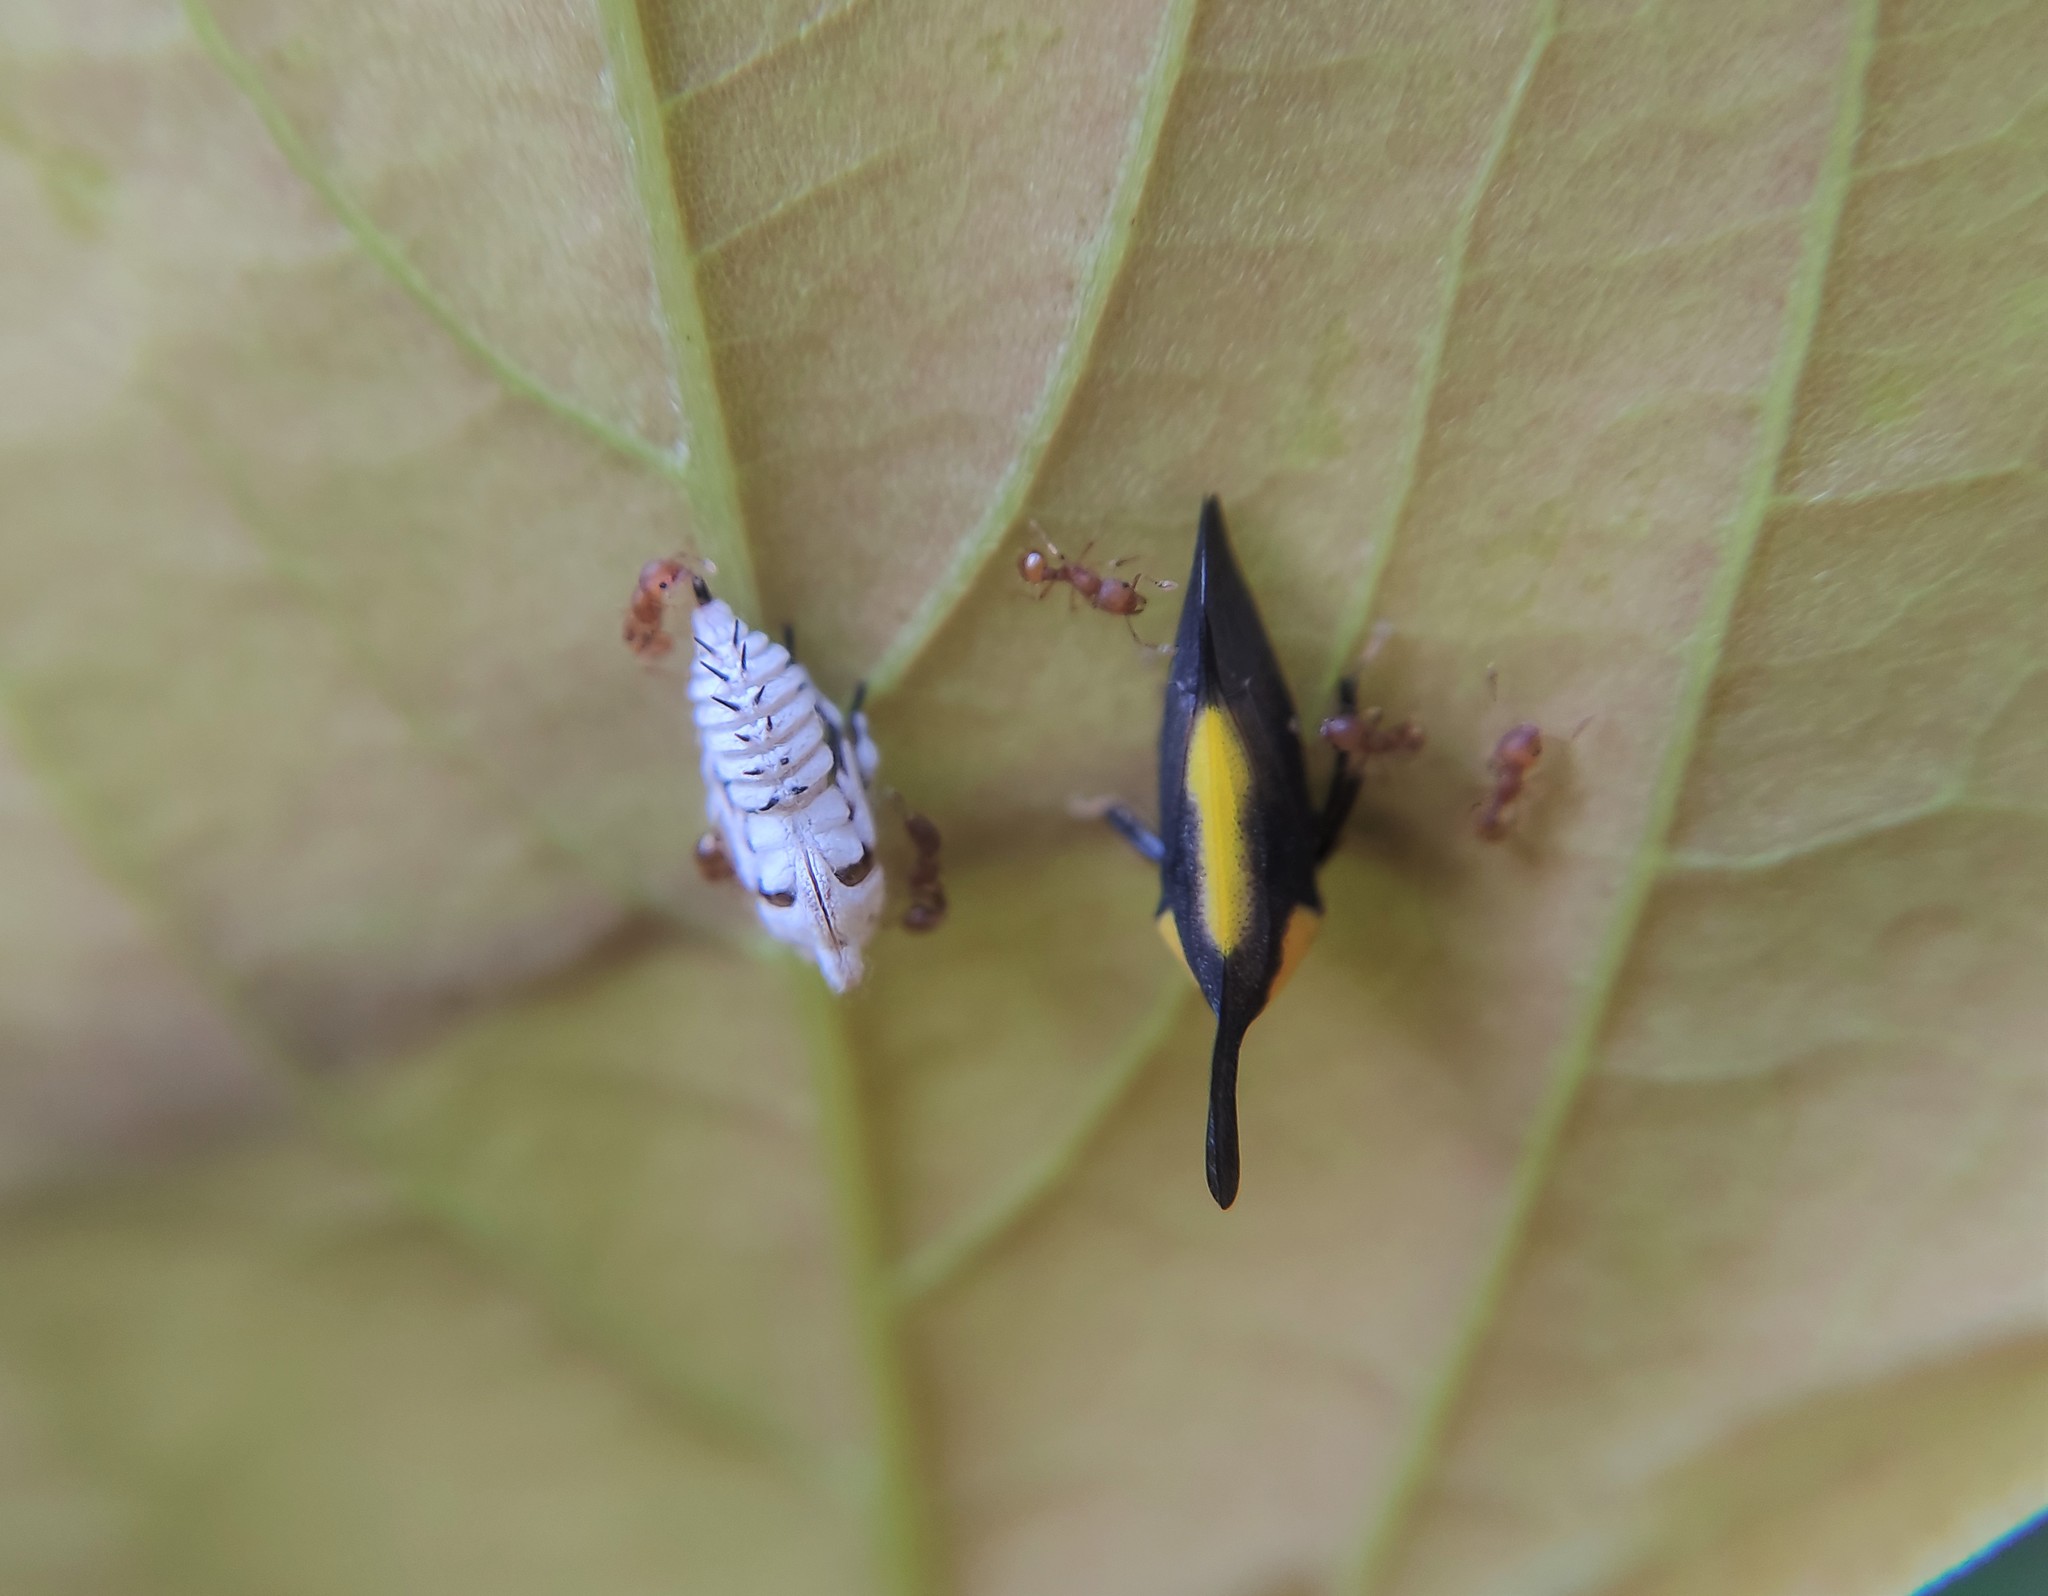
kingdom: Animalia
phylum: Arthropoda
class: Insecta
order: Hemiptera
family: Membracidae
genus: Enchenopa
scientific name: Enchenopa
